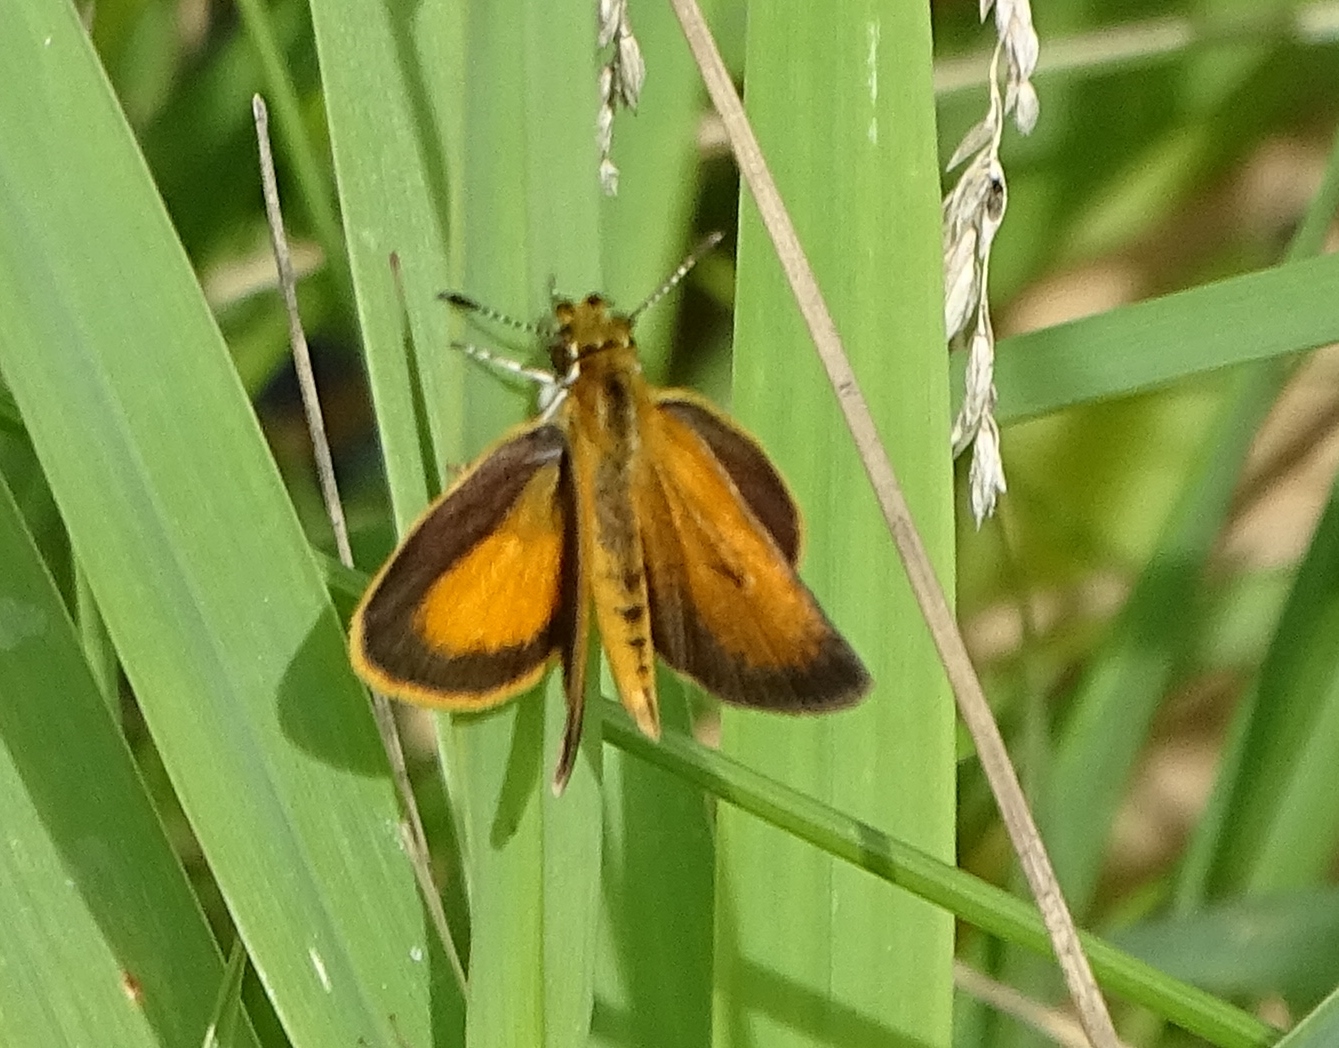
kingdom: Animalia
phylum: Arthropoda
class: Insecta
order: Lepidoptera
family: Hesperiidae
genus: Ancyloxypha
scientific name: Ancyloxypha numitor
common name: Least skipper
